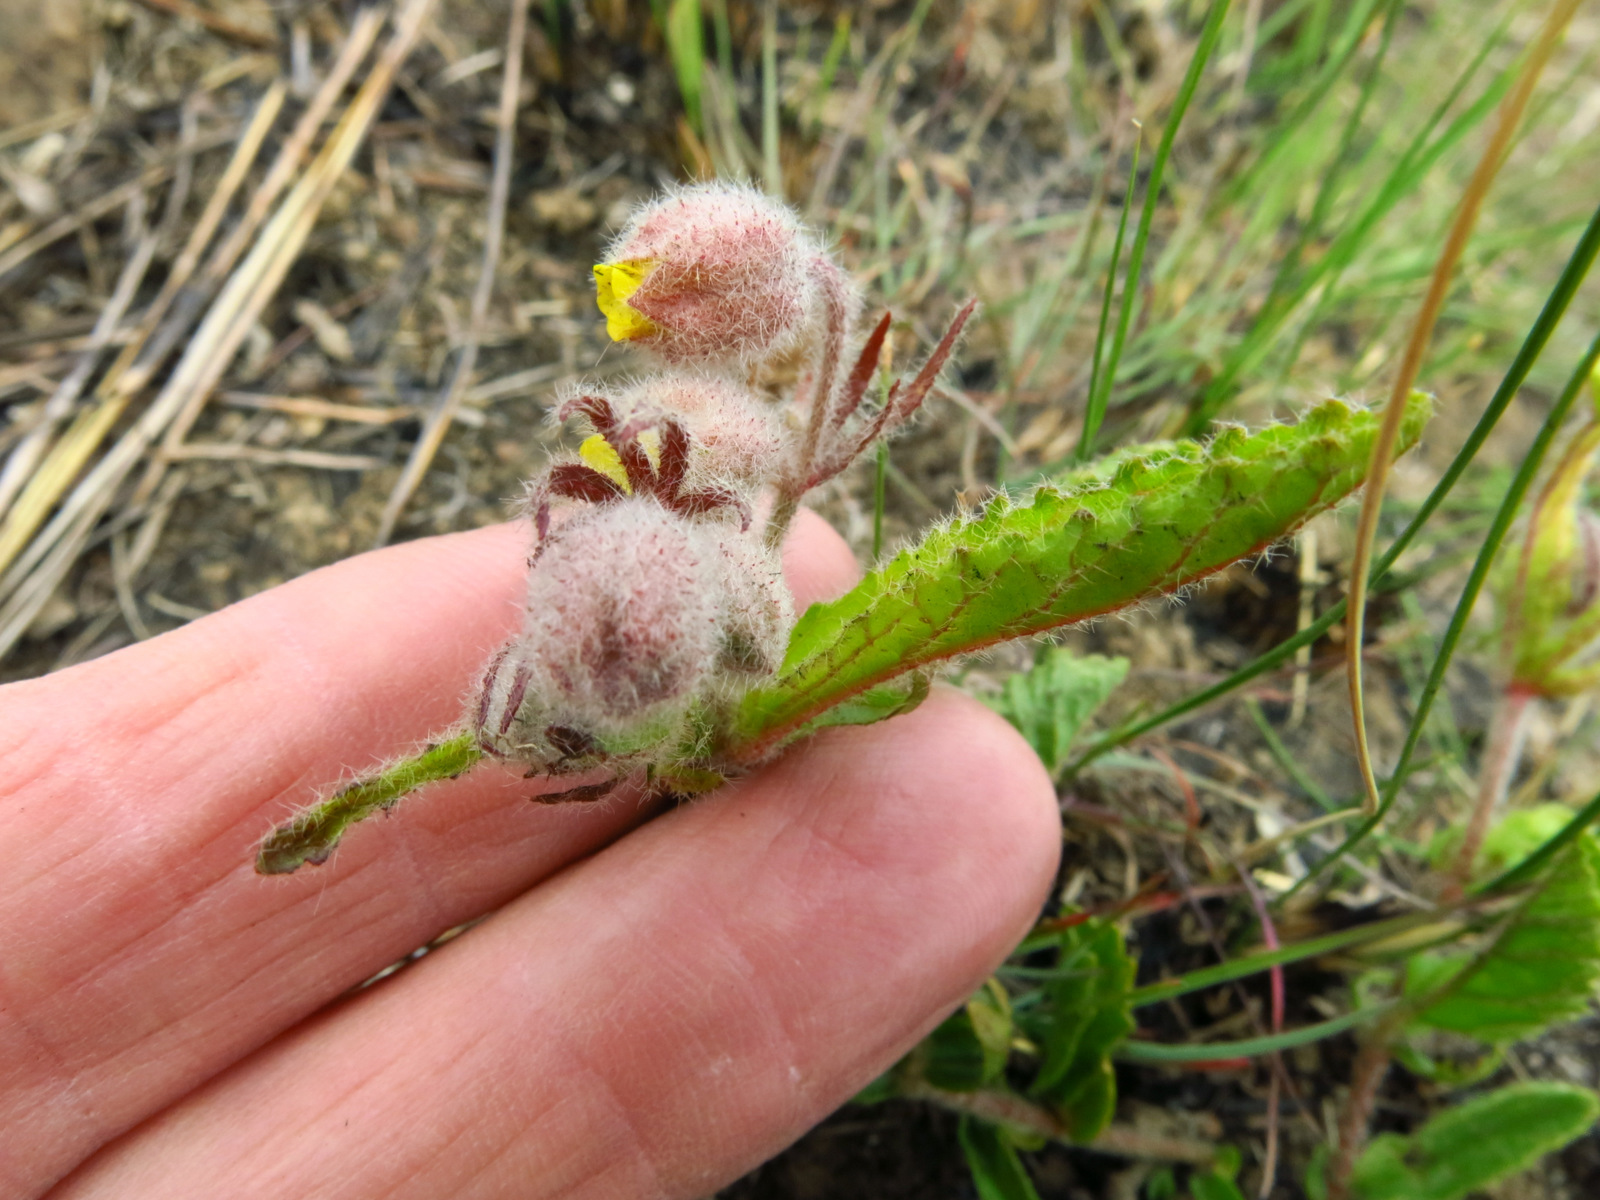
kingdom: Plantae
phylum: Tracheophyta
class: Magnoliopsida
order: Malvales
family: Malvaceae
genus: Hermannia
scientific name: Hermannia grandistipula
